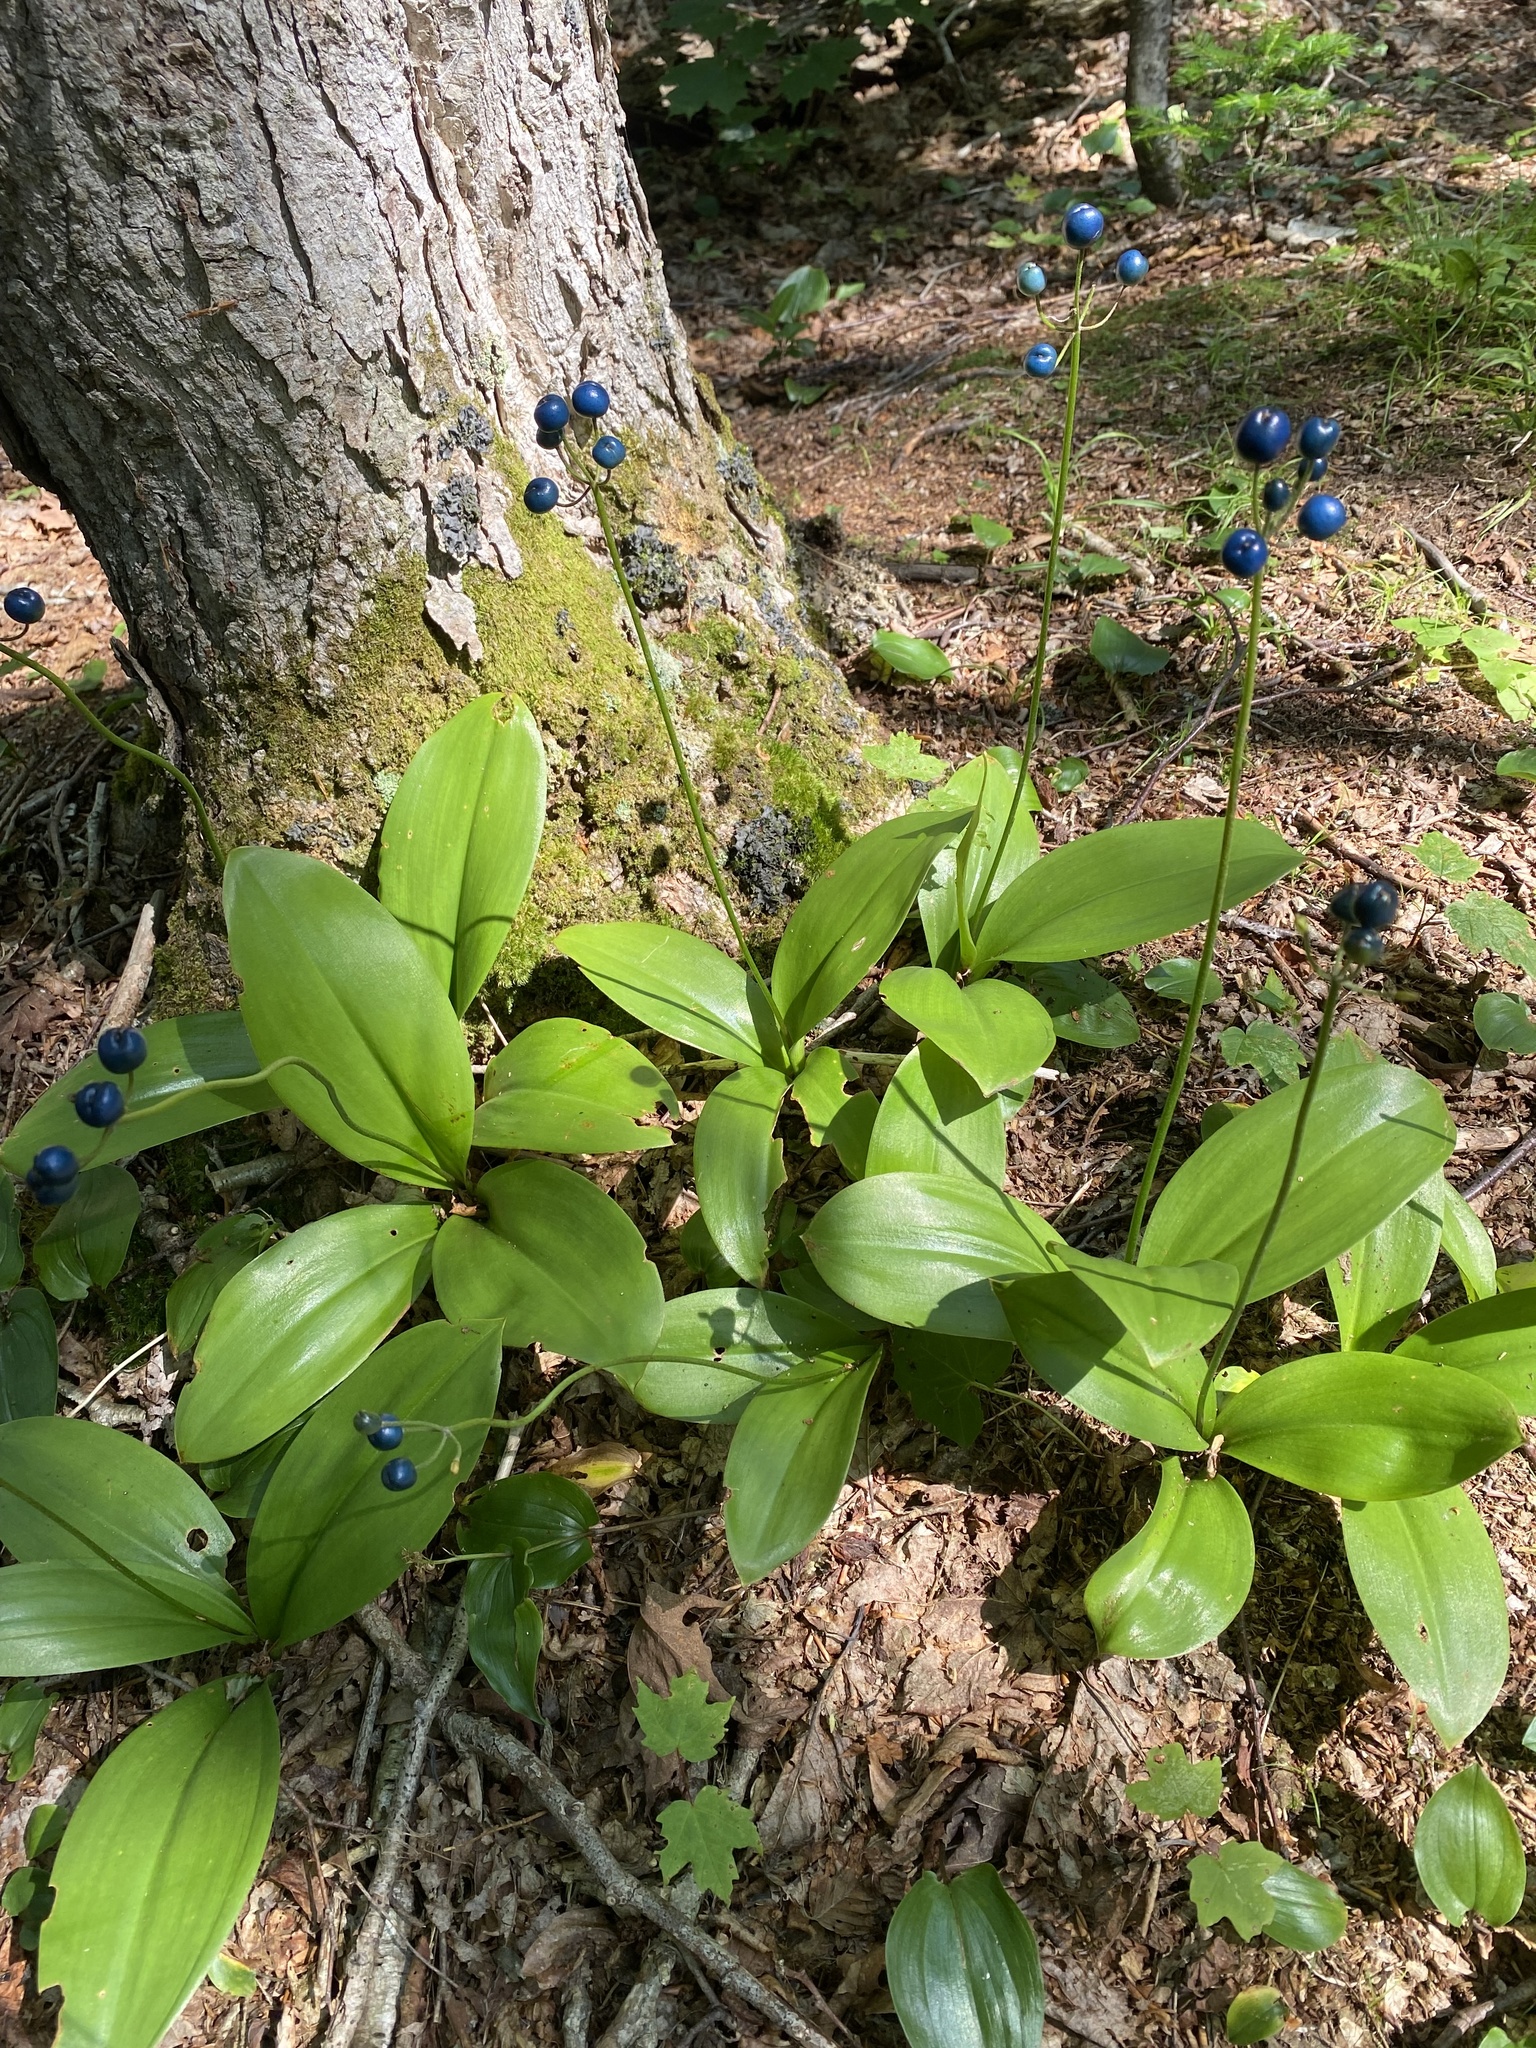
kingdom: Plantae
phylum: Tracheophyta
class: Liliopsida
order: Liliales
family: Liliaceae
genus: Clintonia
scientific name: Clintonia borealis
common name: Yellow clintonia
